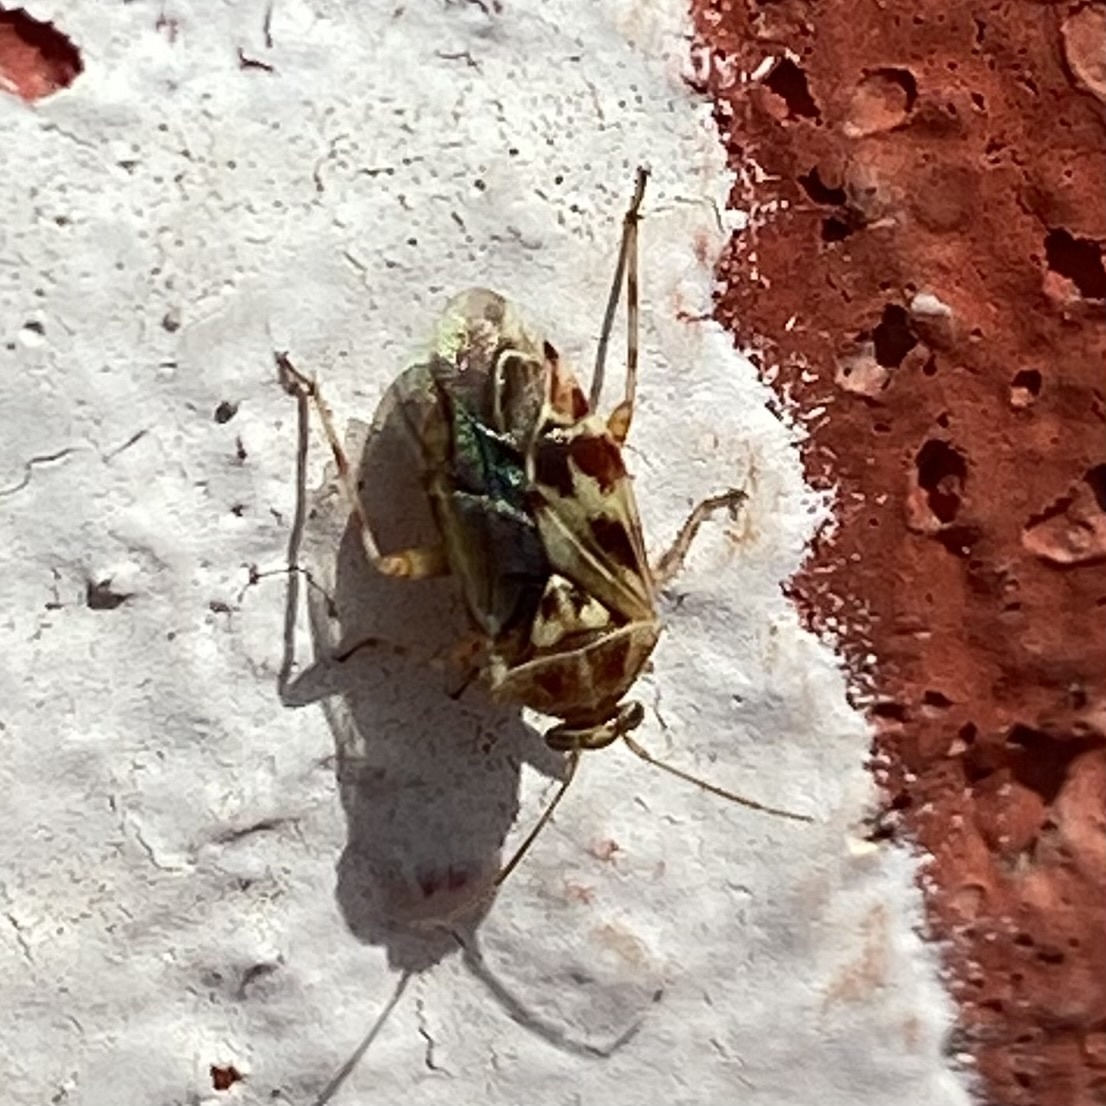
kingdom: Animalia
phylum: Arthropoda
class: Insecta
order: Hemiptera
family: Miridae
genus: Tropidosteptes
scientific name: Tropidosteptes quercicola
